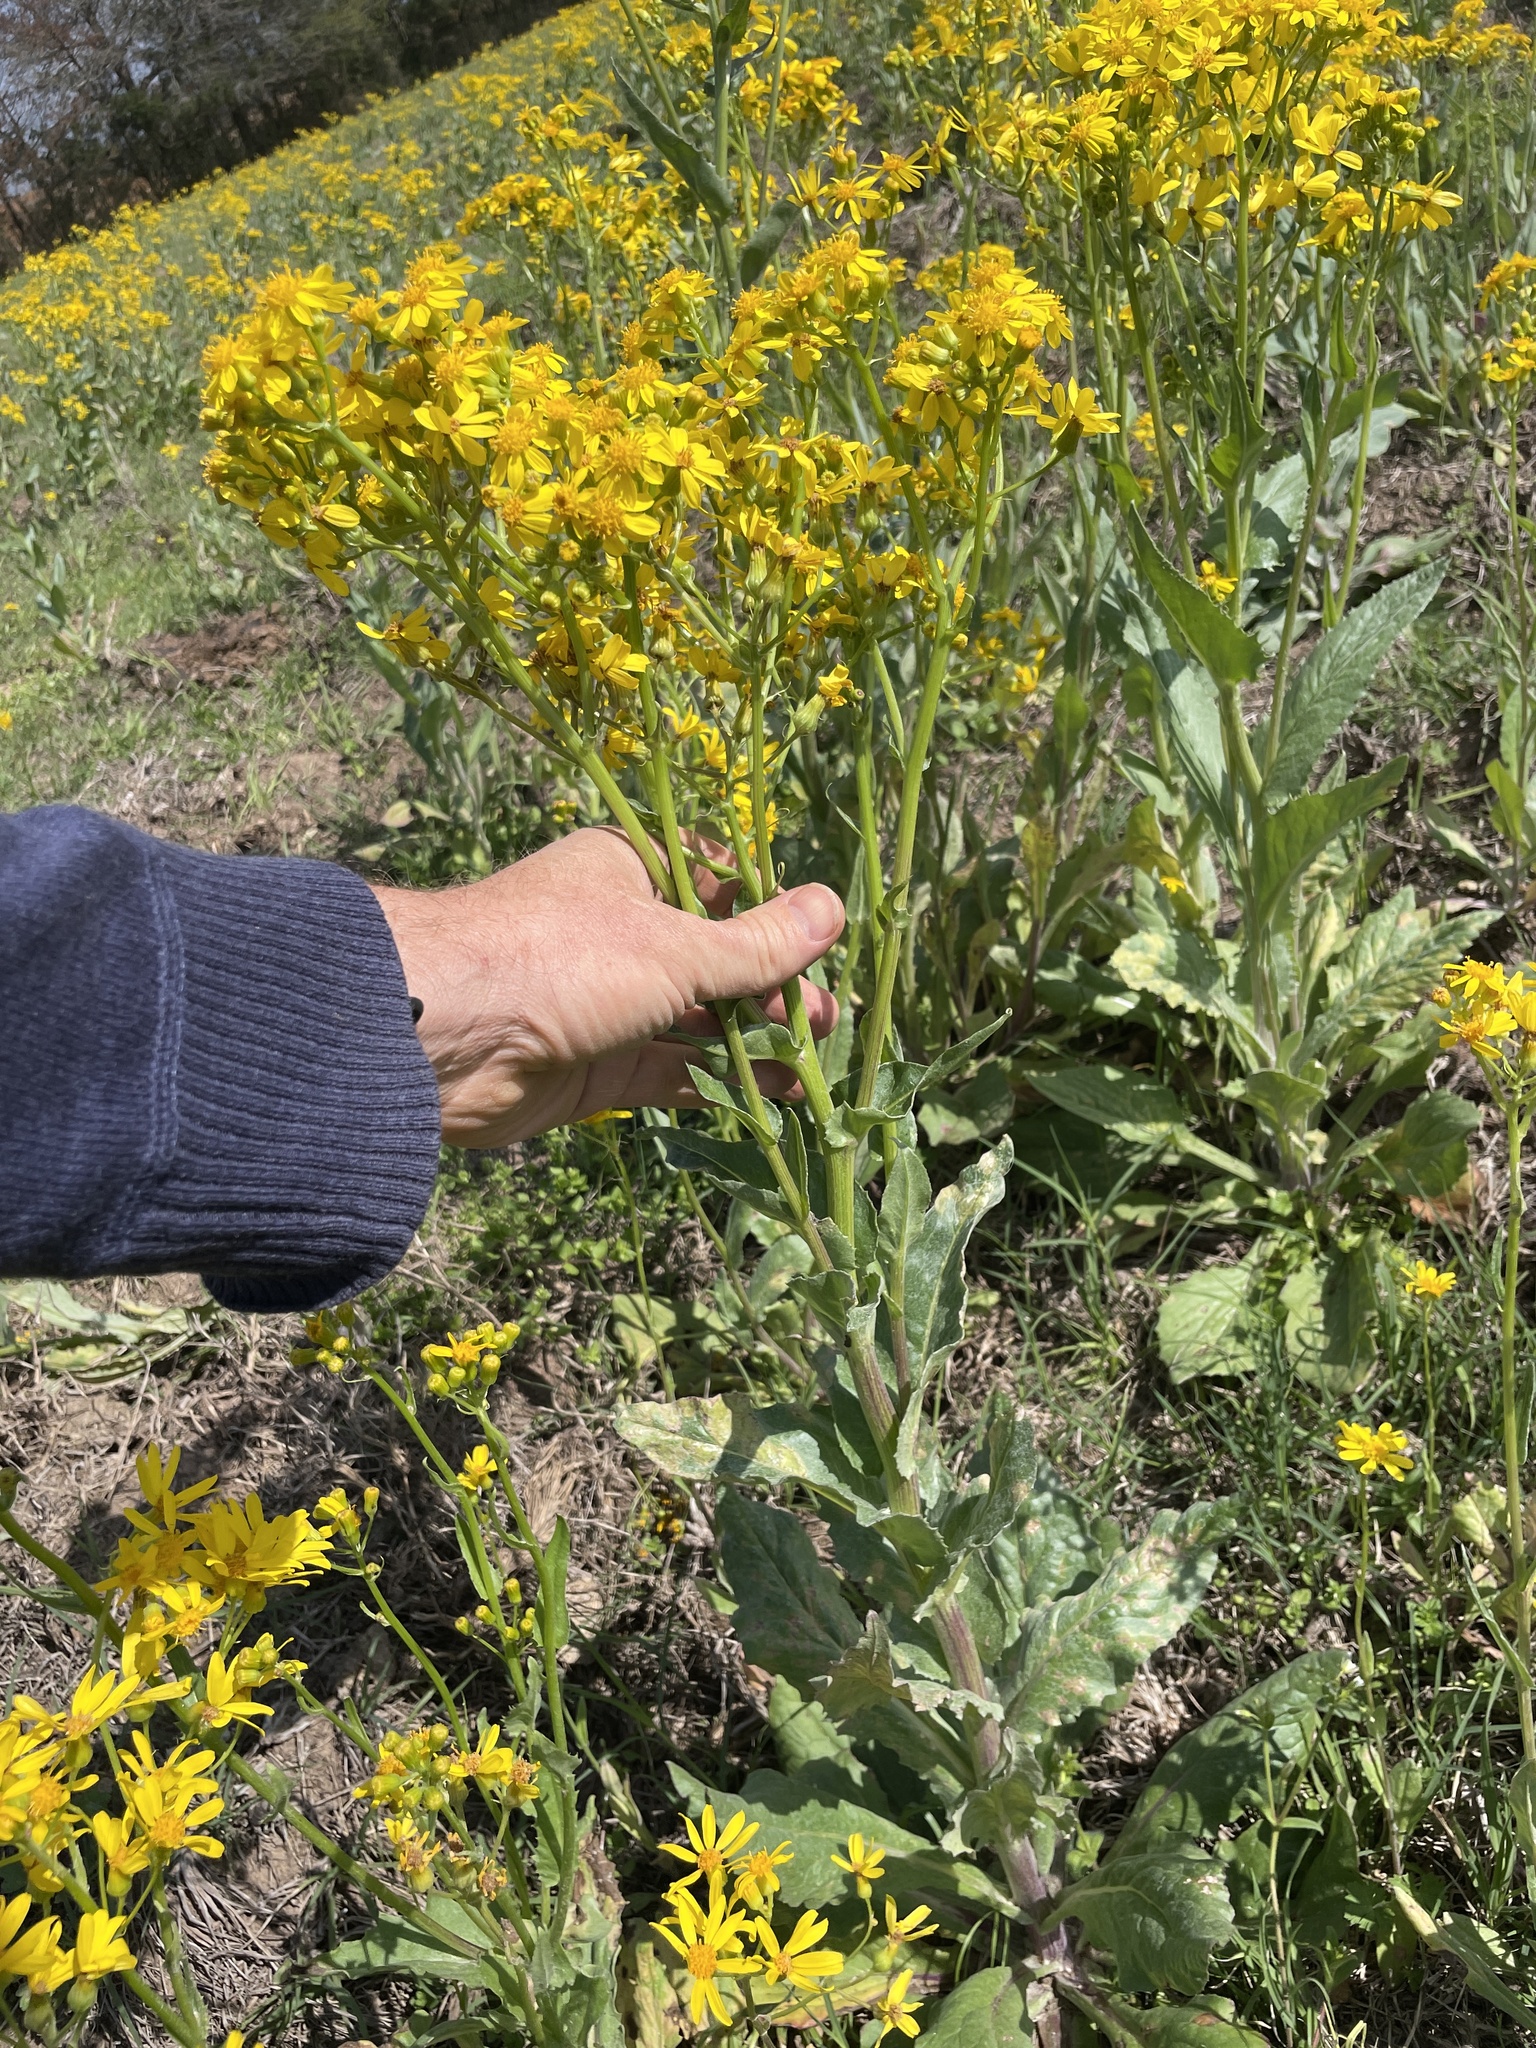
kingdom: Plantae
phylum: Tracheophyta
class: Magnoliopsida
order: Asterales
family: Asteraceae
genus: Senecio
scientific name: Senecio ampullaceus
